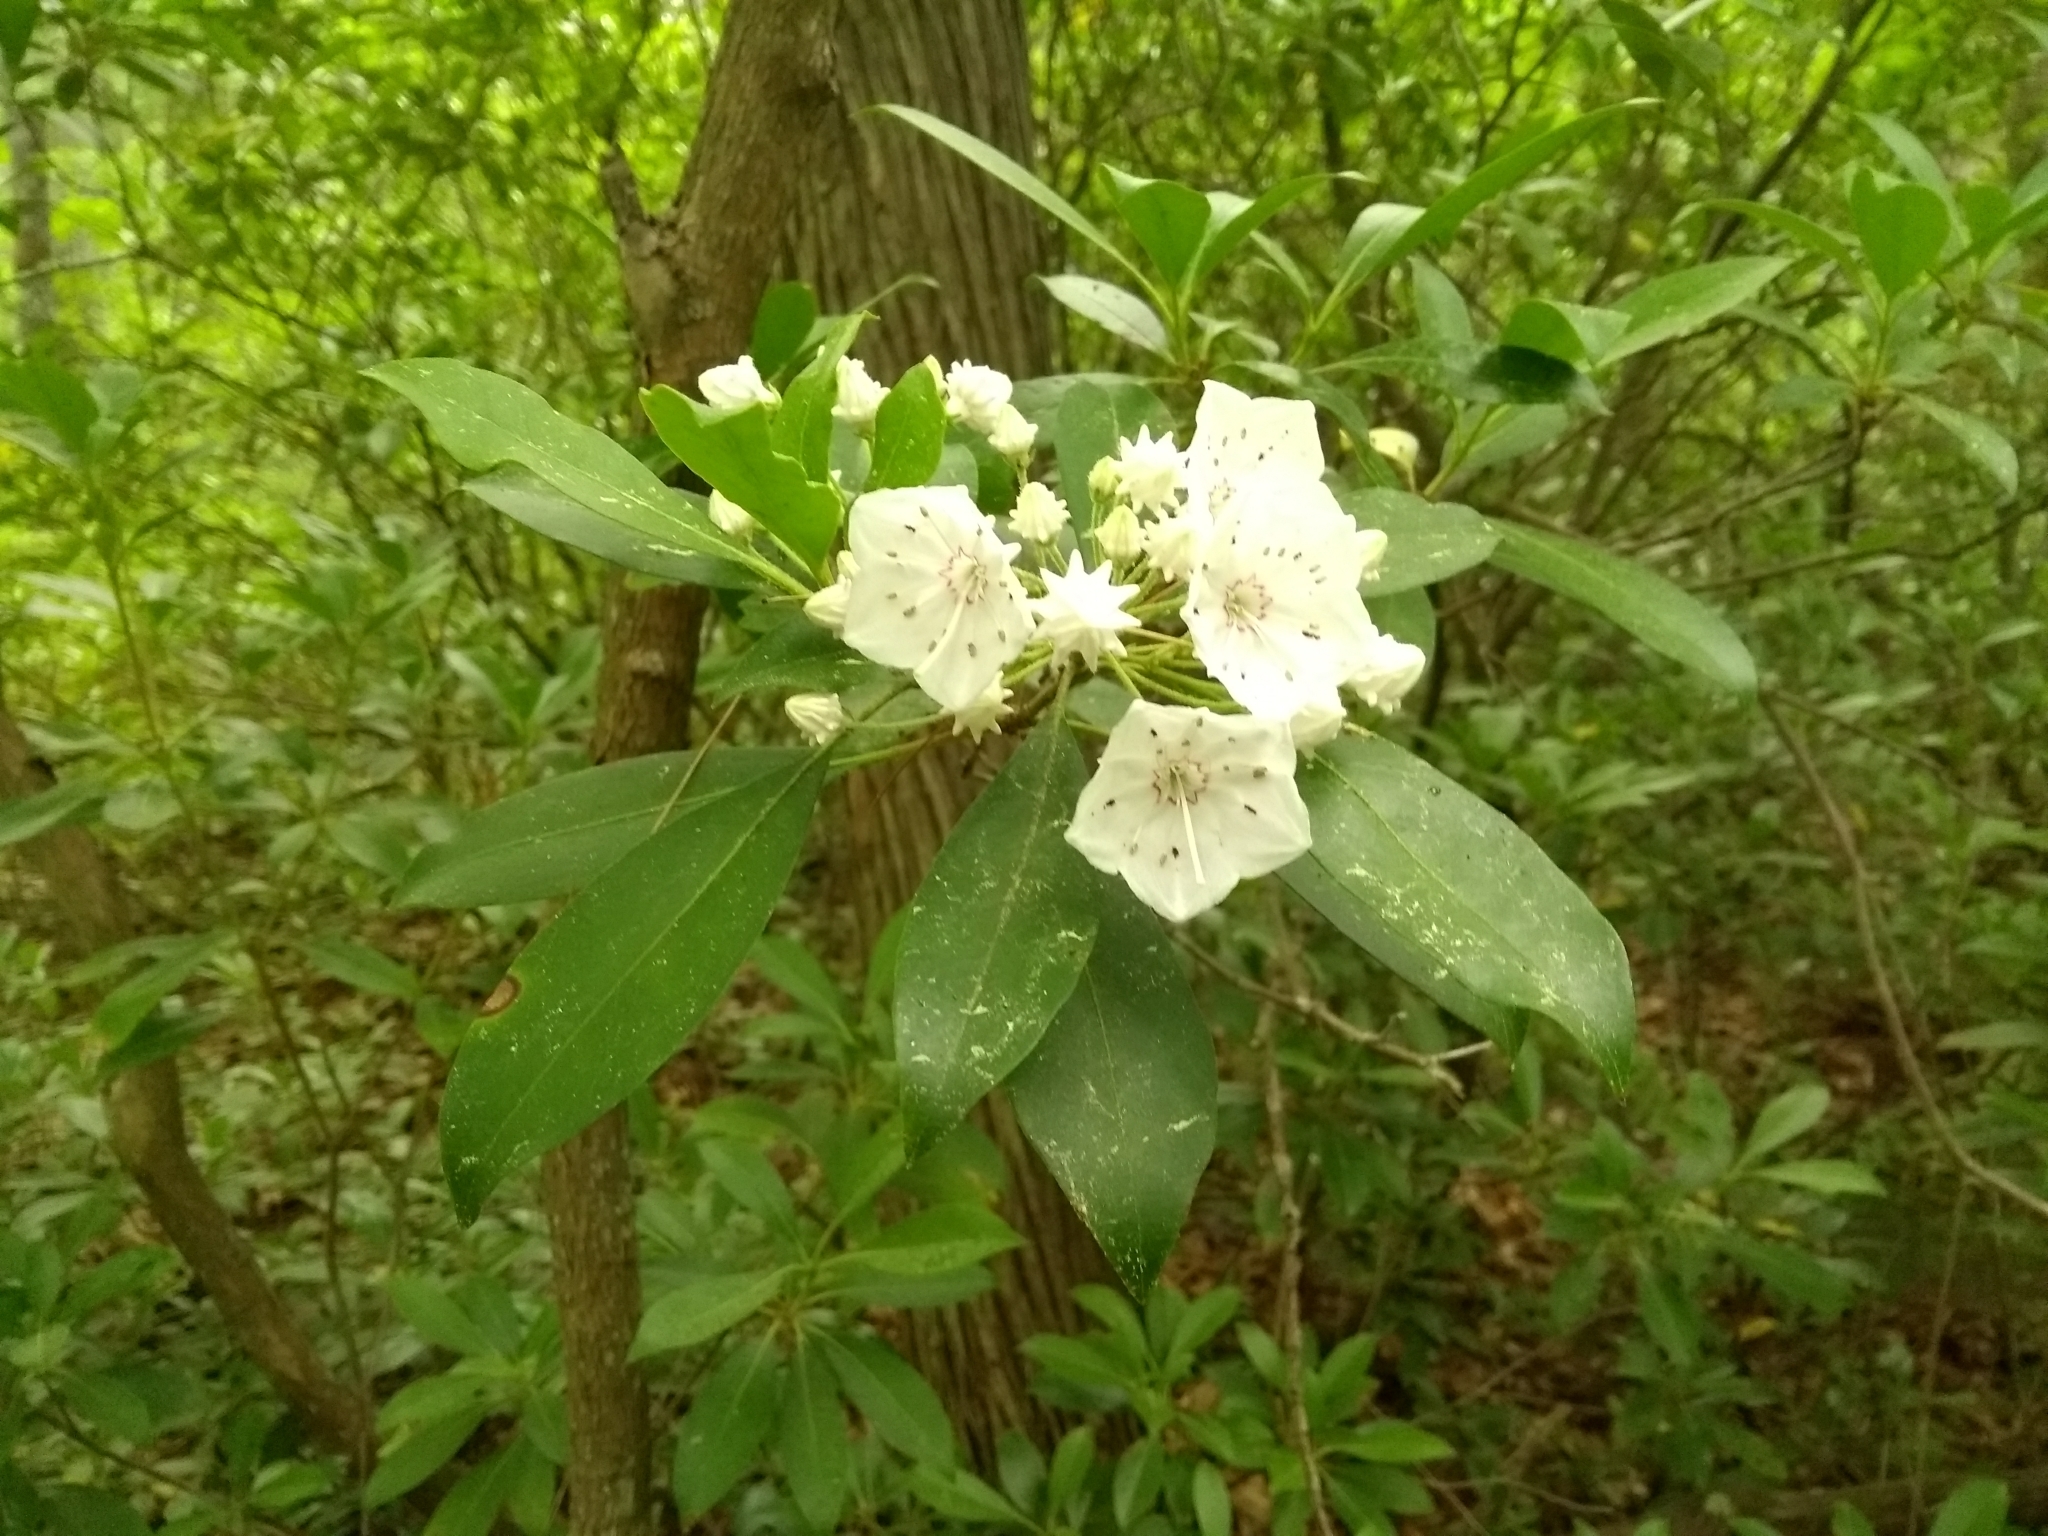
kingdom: Plantae
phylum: Tracheophyta
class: Magnoliopsida
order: Ericales
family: Ericaceae
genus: Kalmia
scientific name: Kalmia latifolia
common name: Mountain-laurel
